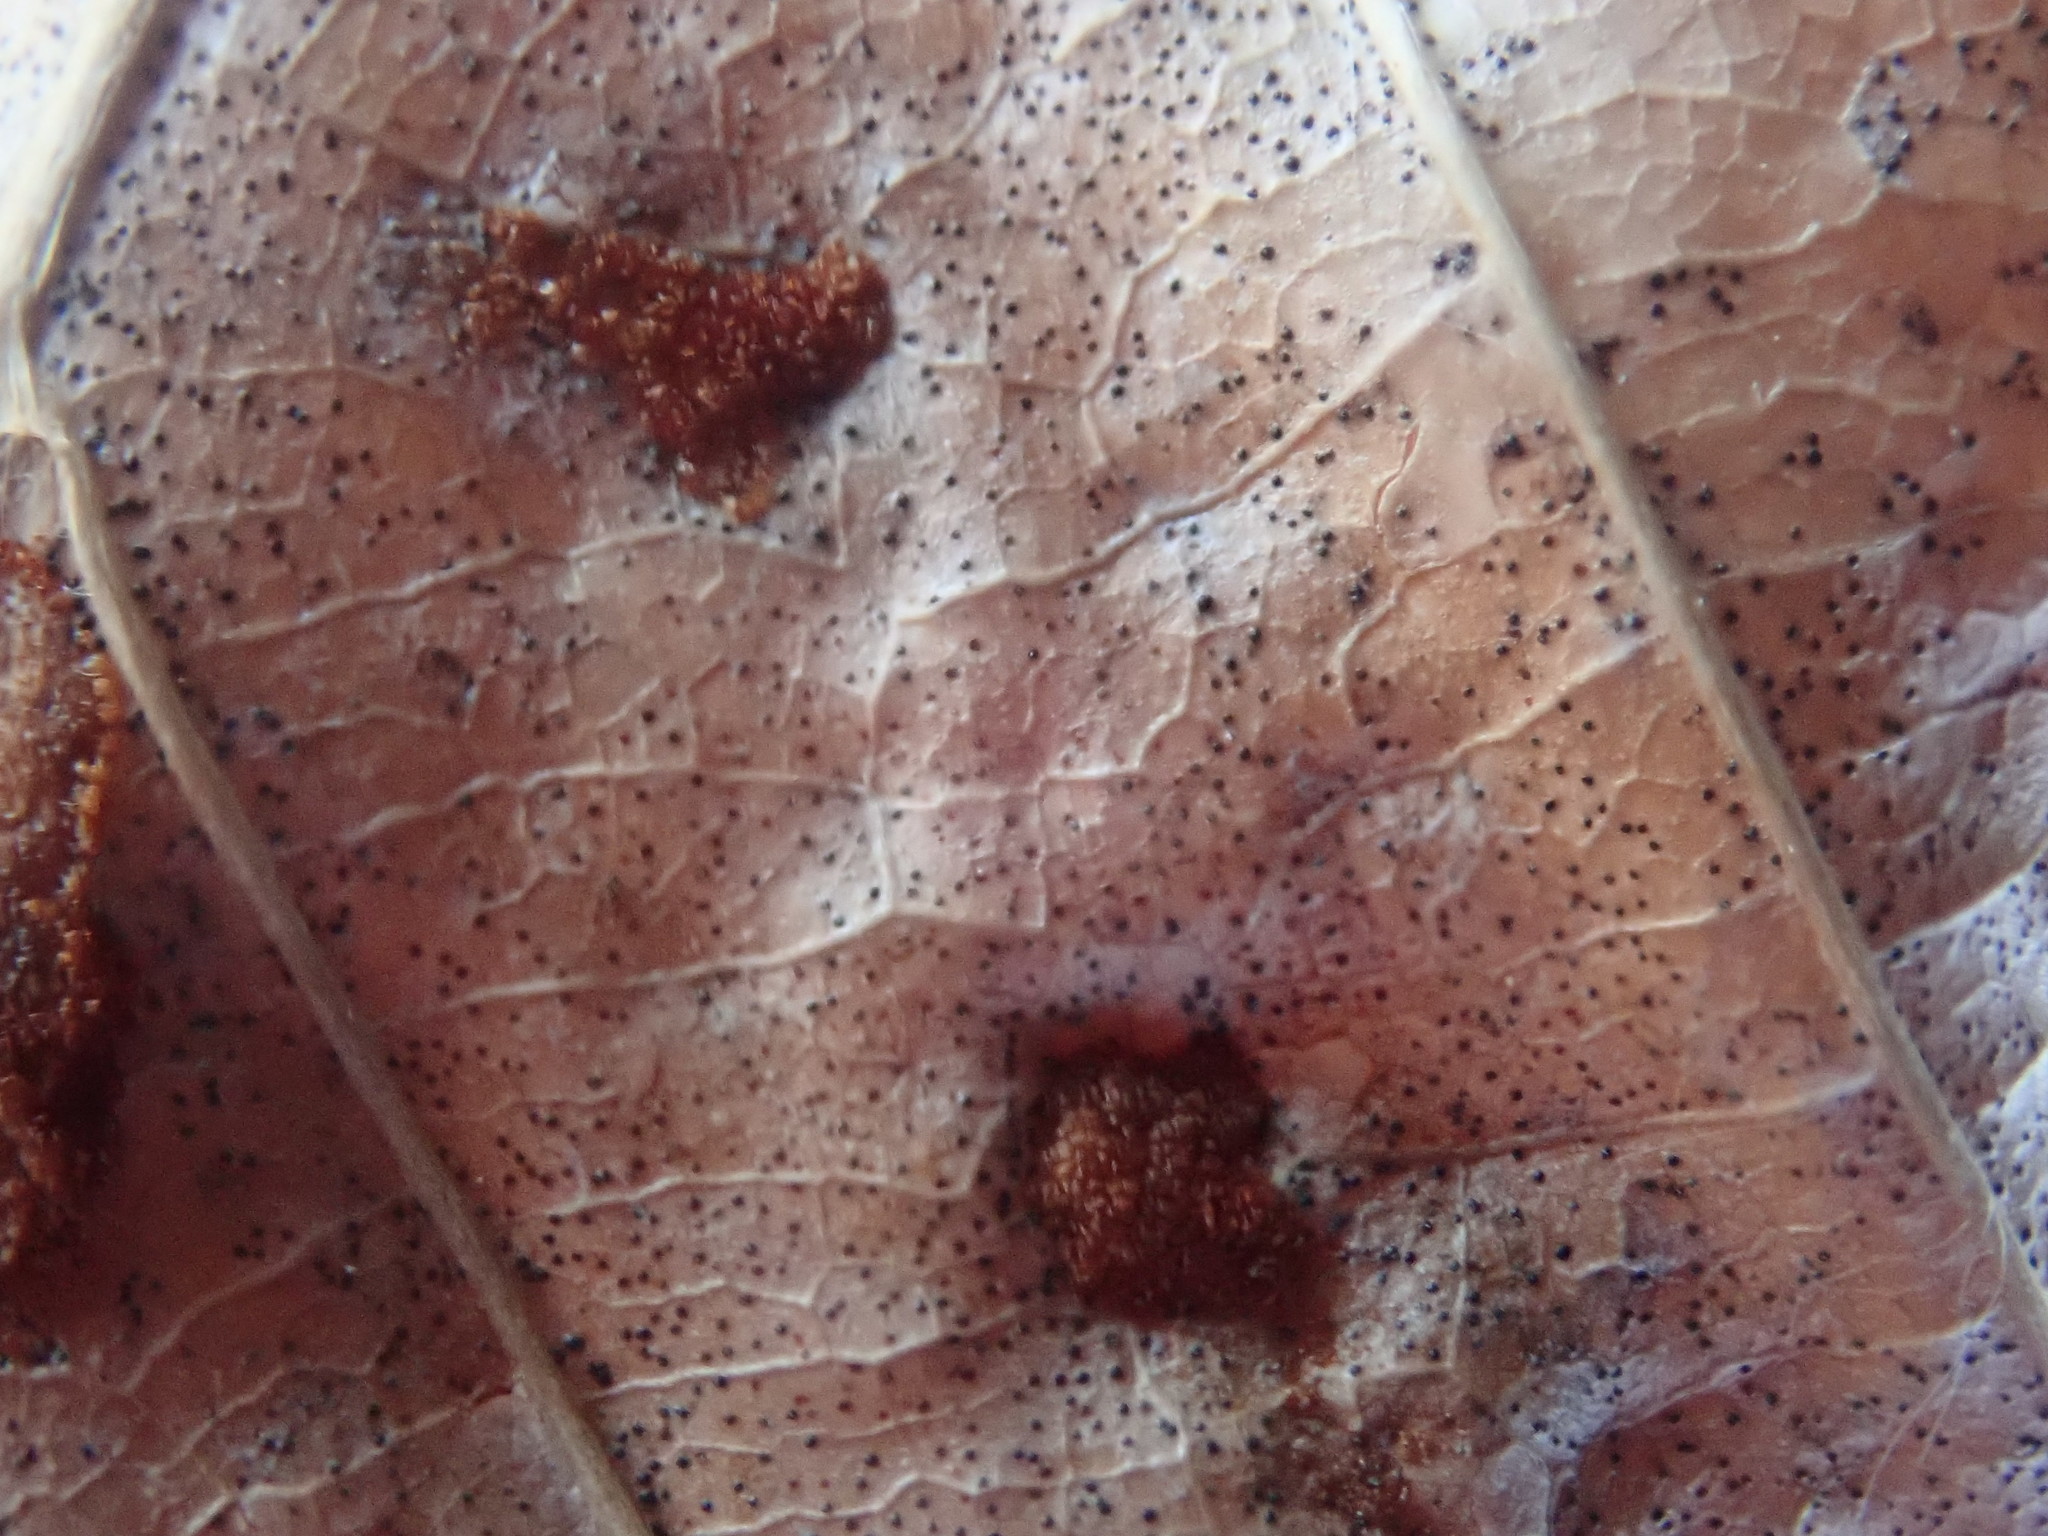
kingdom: Animalia
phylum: Arthropoda
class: Arachnida
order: Trombidiformes
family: Eriophyidae
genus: Acalitus
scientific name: Acalitus
